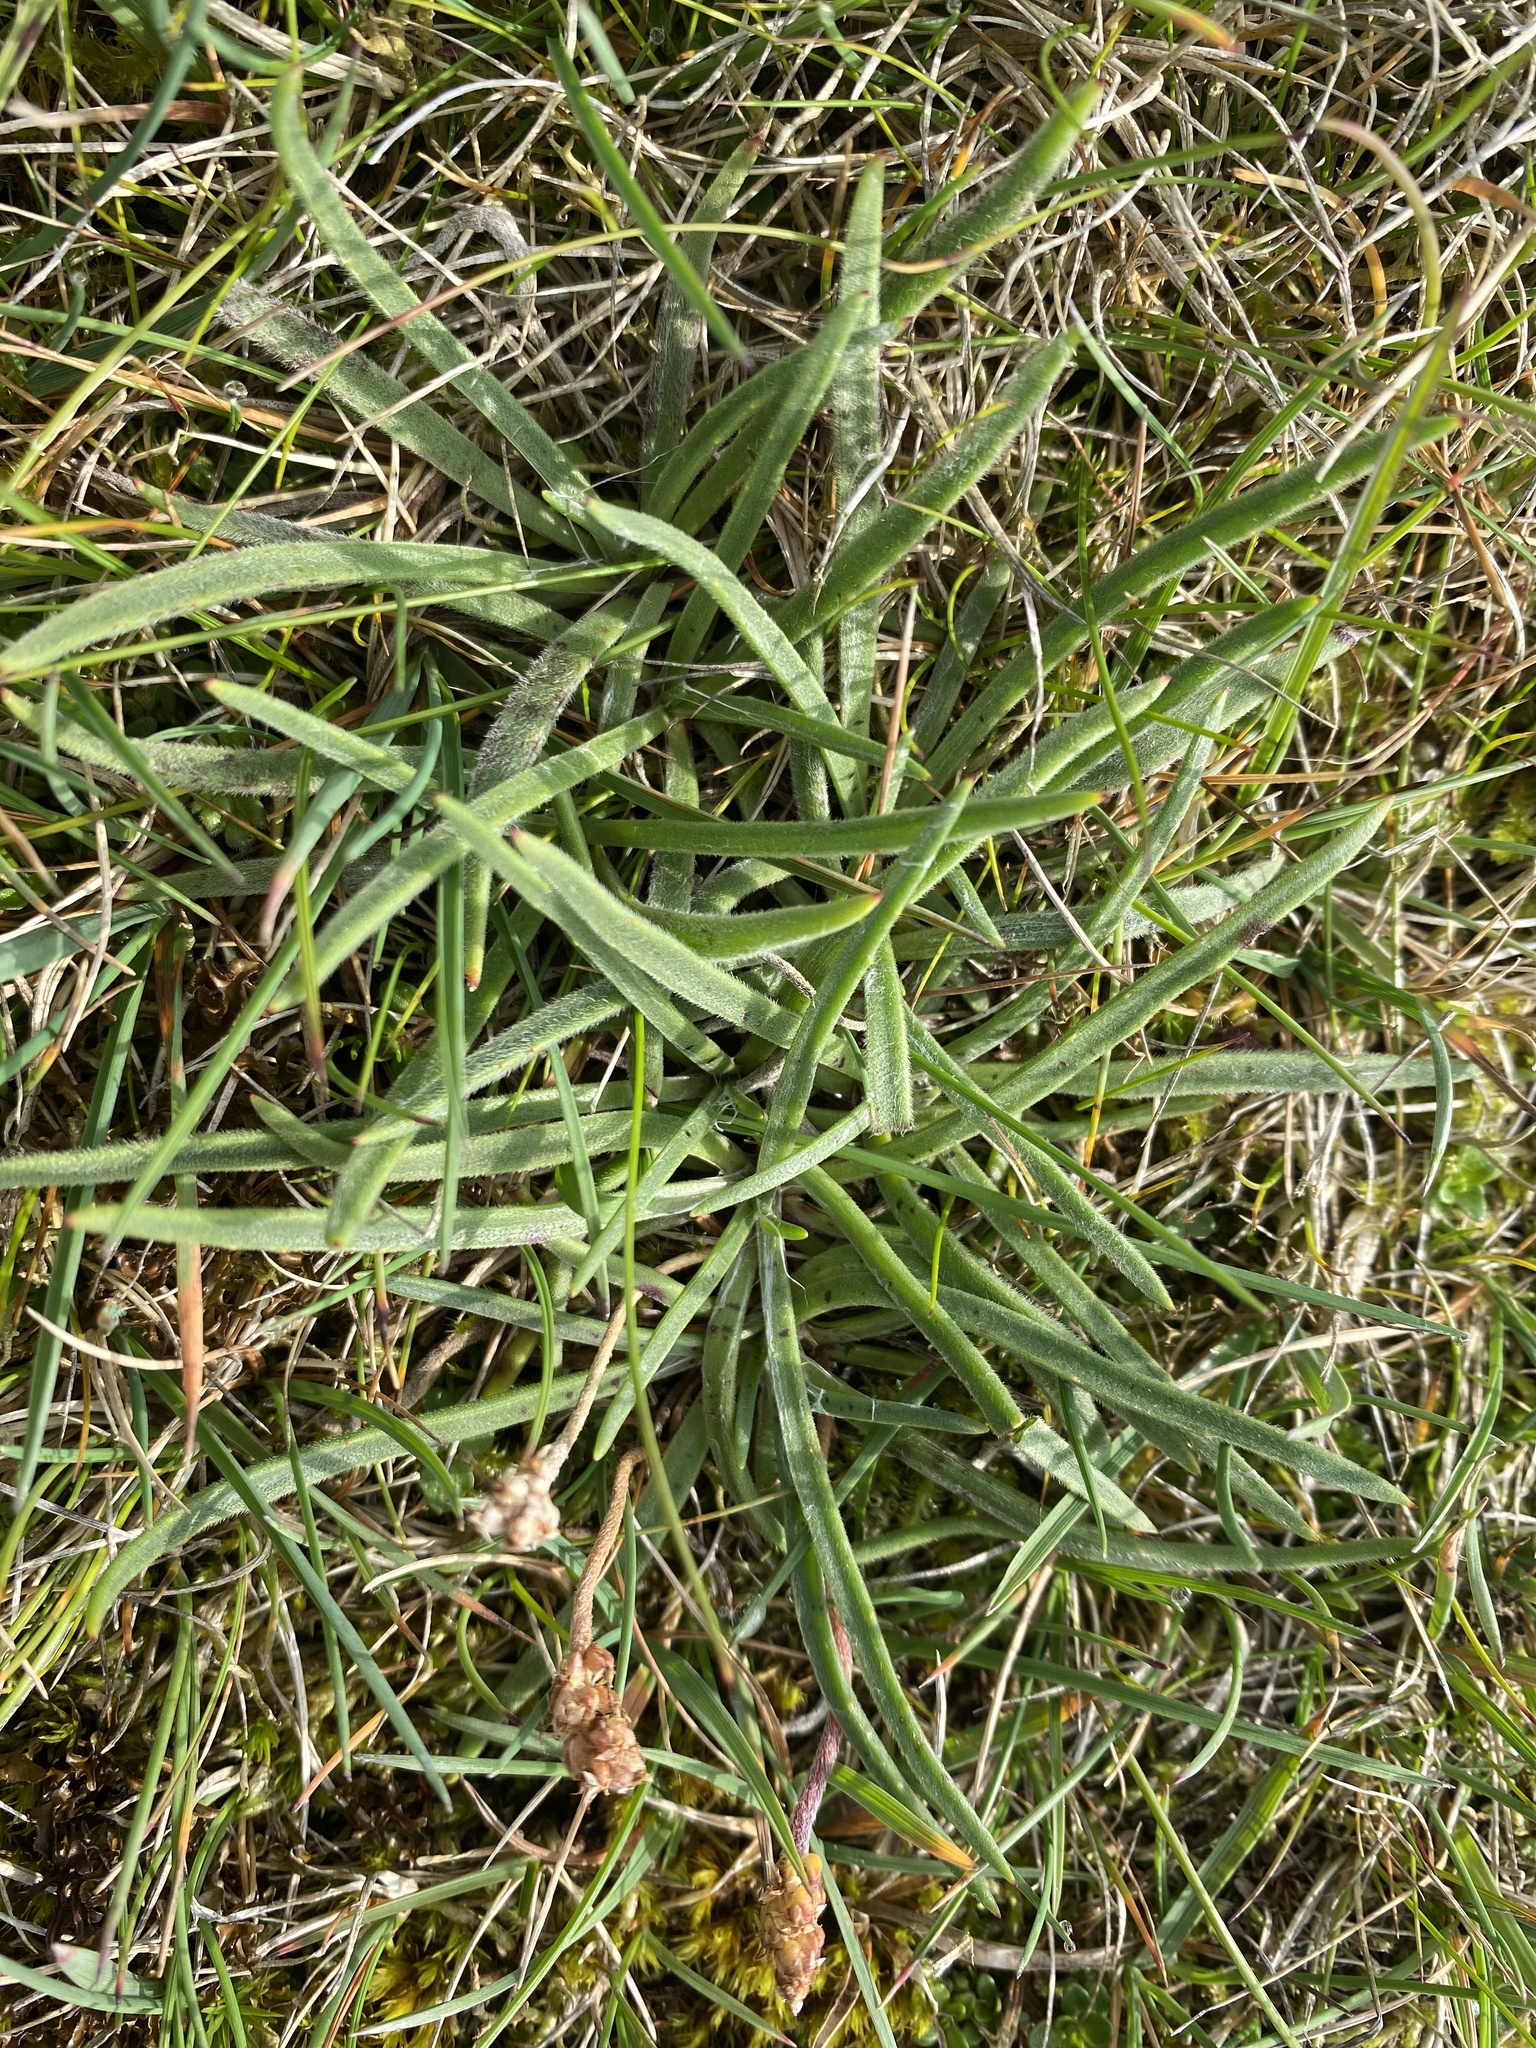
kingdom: Plantae
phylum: Tracheophyta
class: Magnoliopsida
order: Lamiales
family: Plantaginaceae
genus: Plantago
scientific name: Plantago maritima
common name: Sea plantain
